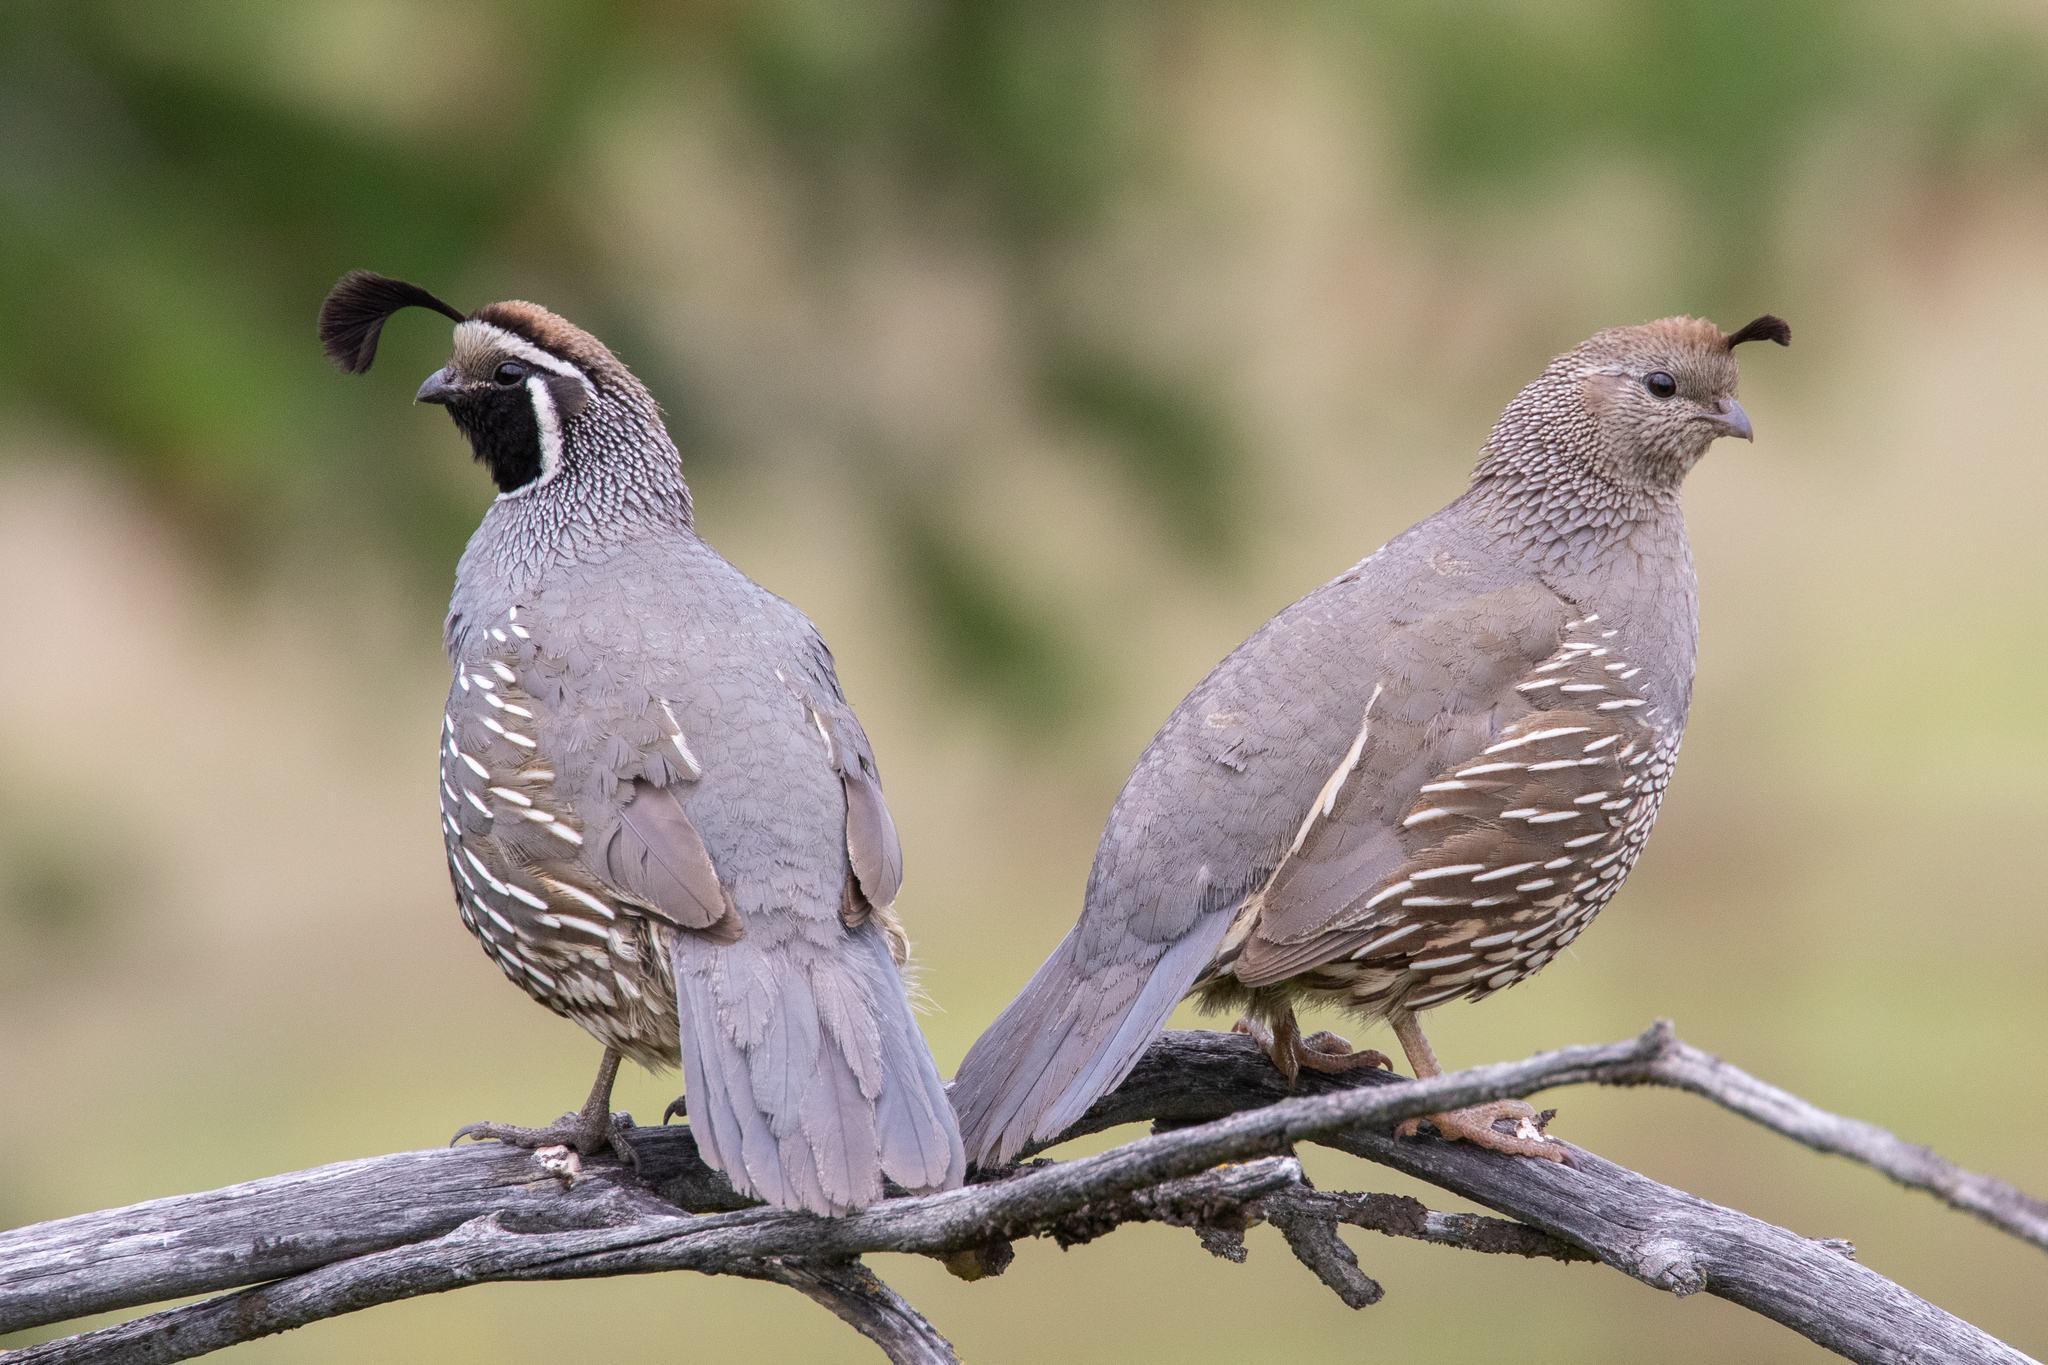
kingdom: Animalia
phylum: Chordata
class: Aves
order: Galliformes
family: Odontophoridae
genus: Callipepla
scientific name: Callipepla californica
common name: California quail
